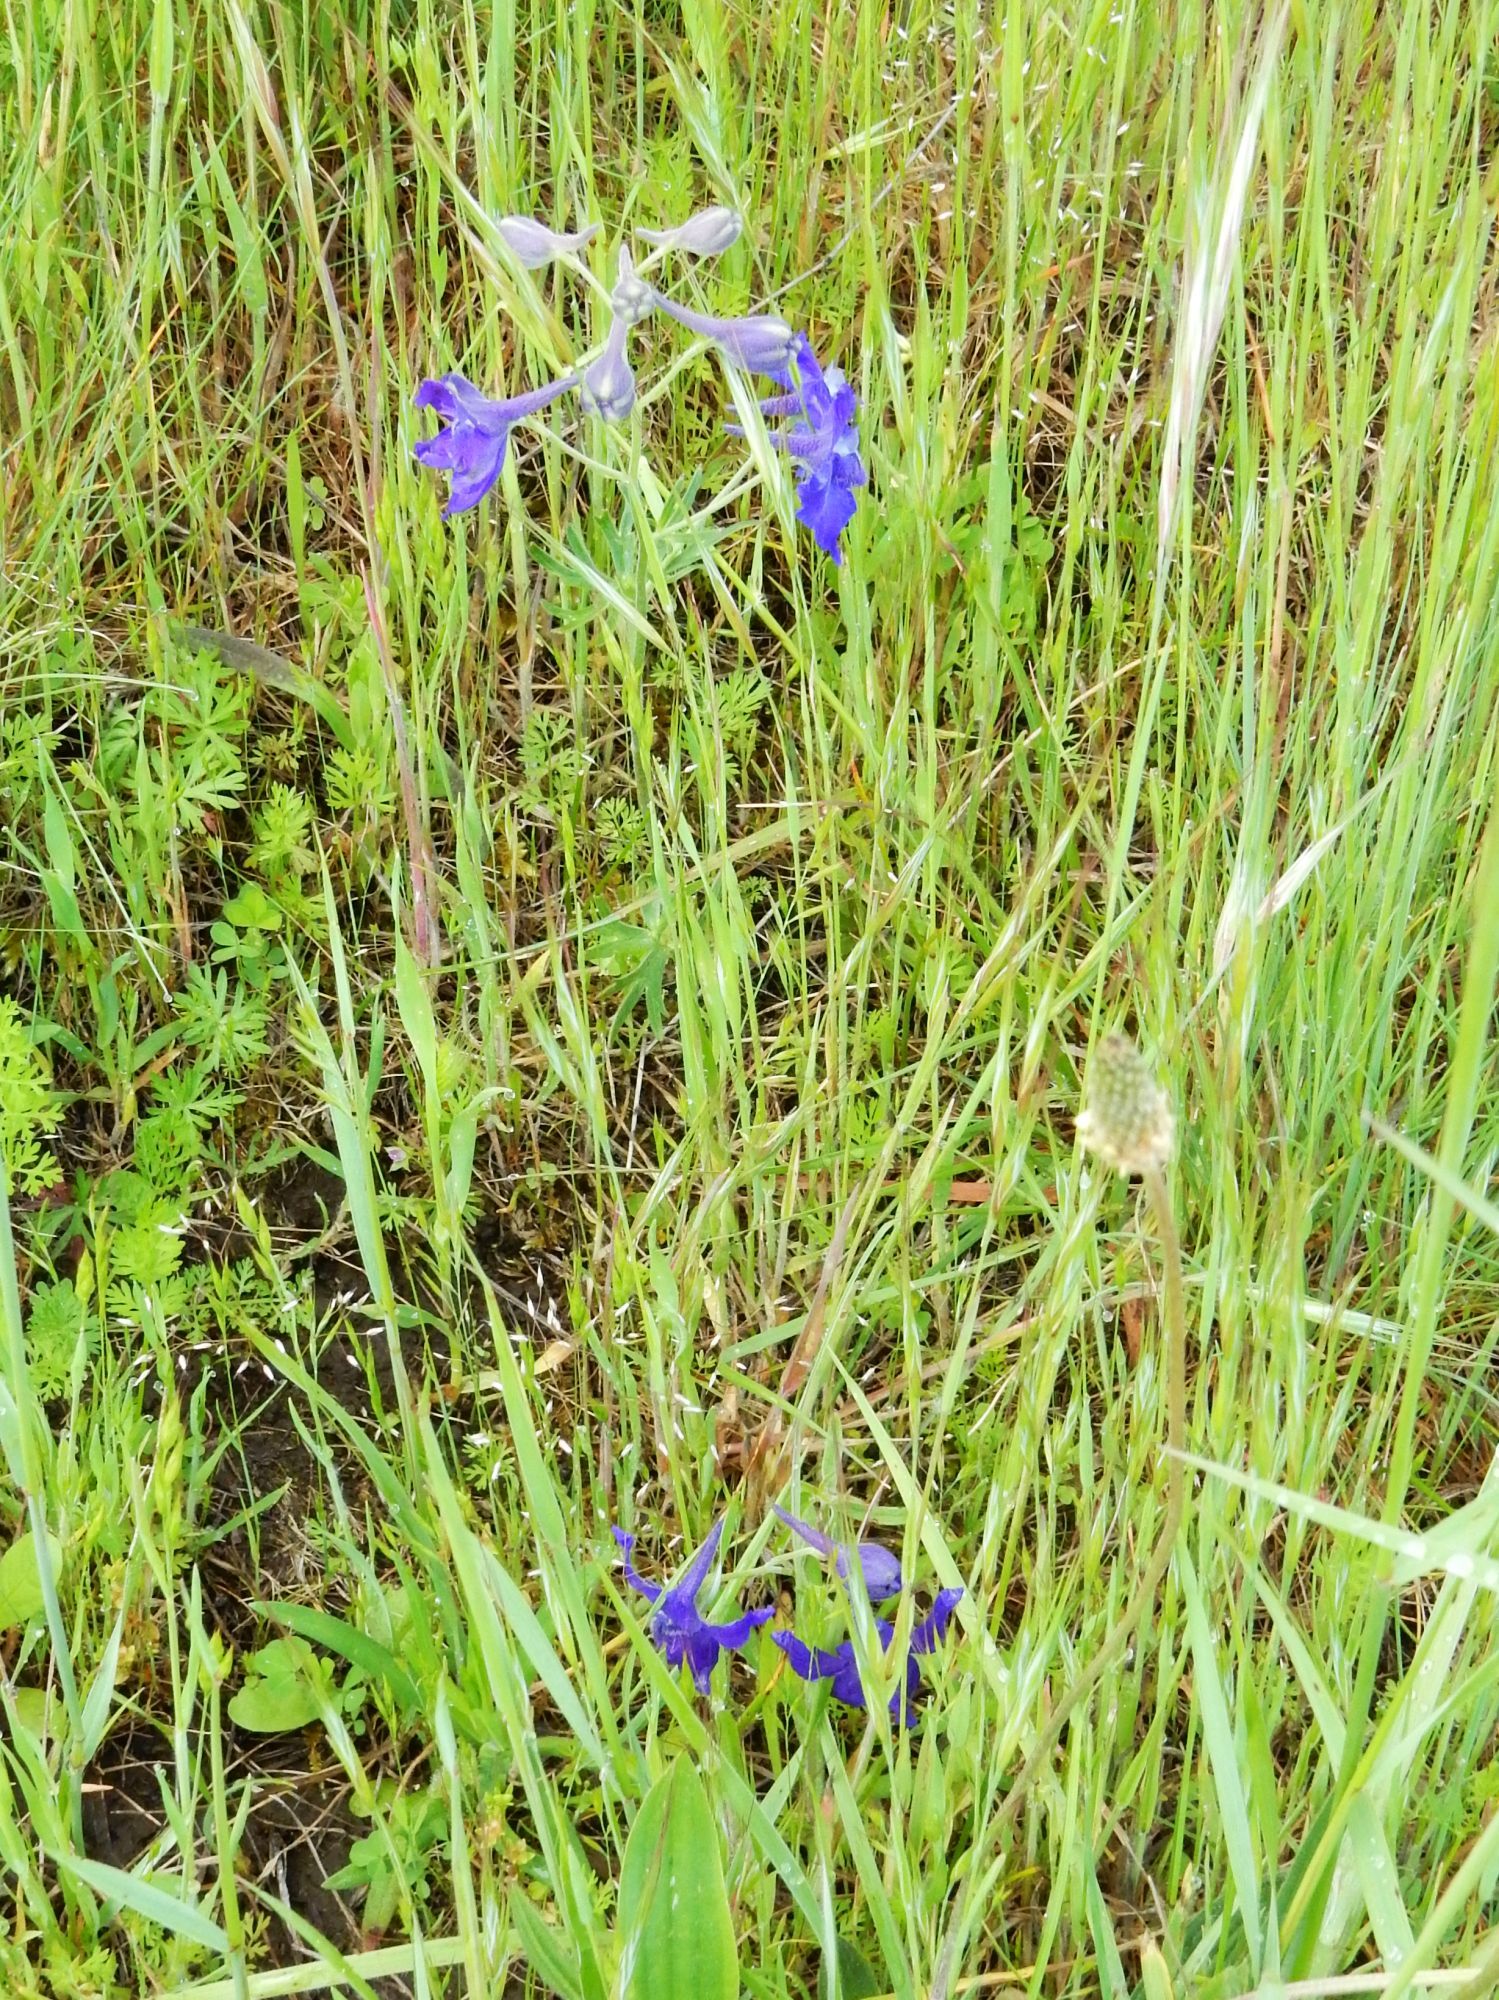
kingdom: Plantae
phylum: Tracheophyta
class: Magnoliopsida
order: Ranunculales
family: Ranunculaceae
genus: Delphinium
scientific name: Delphinium menziesii
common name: Menzies's larkspur
